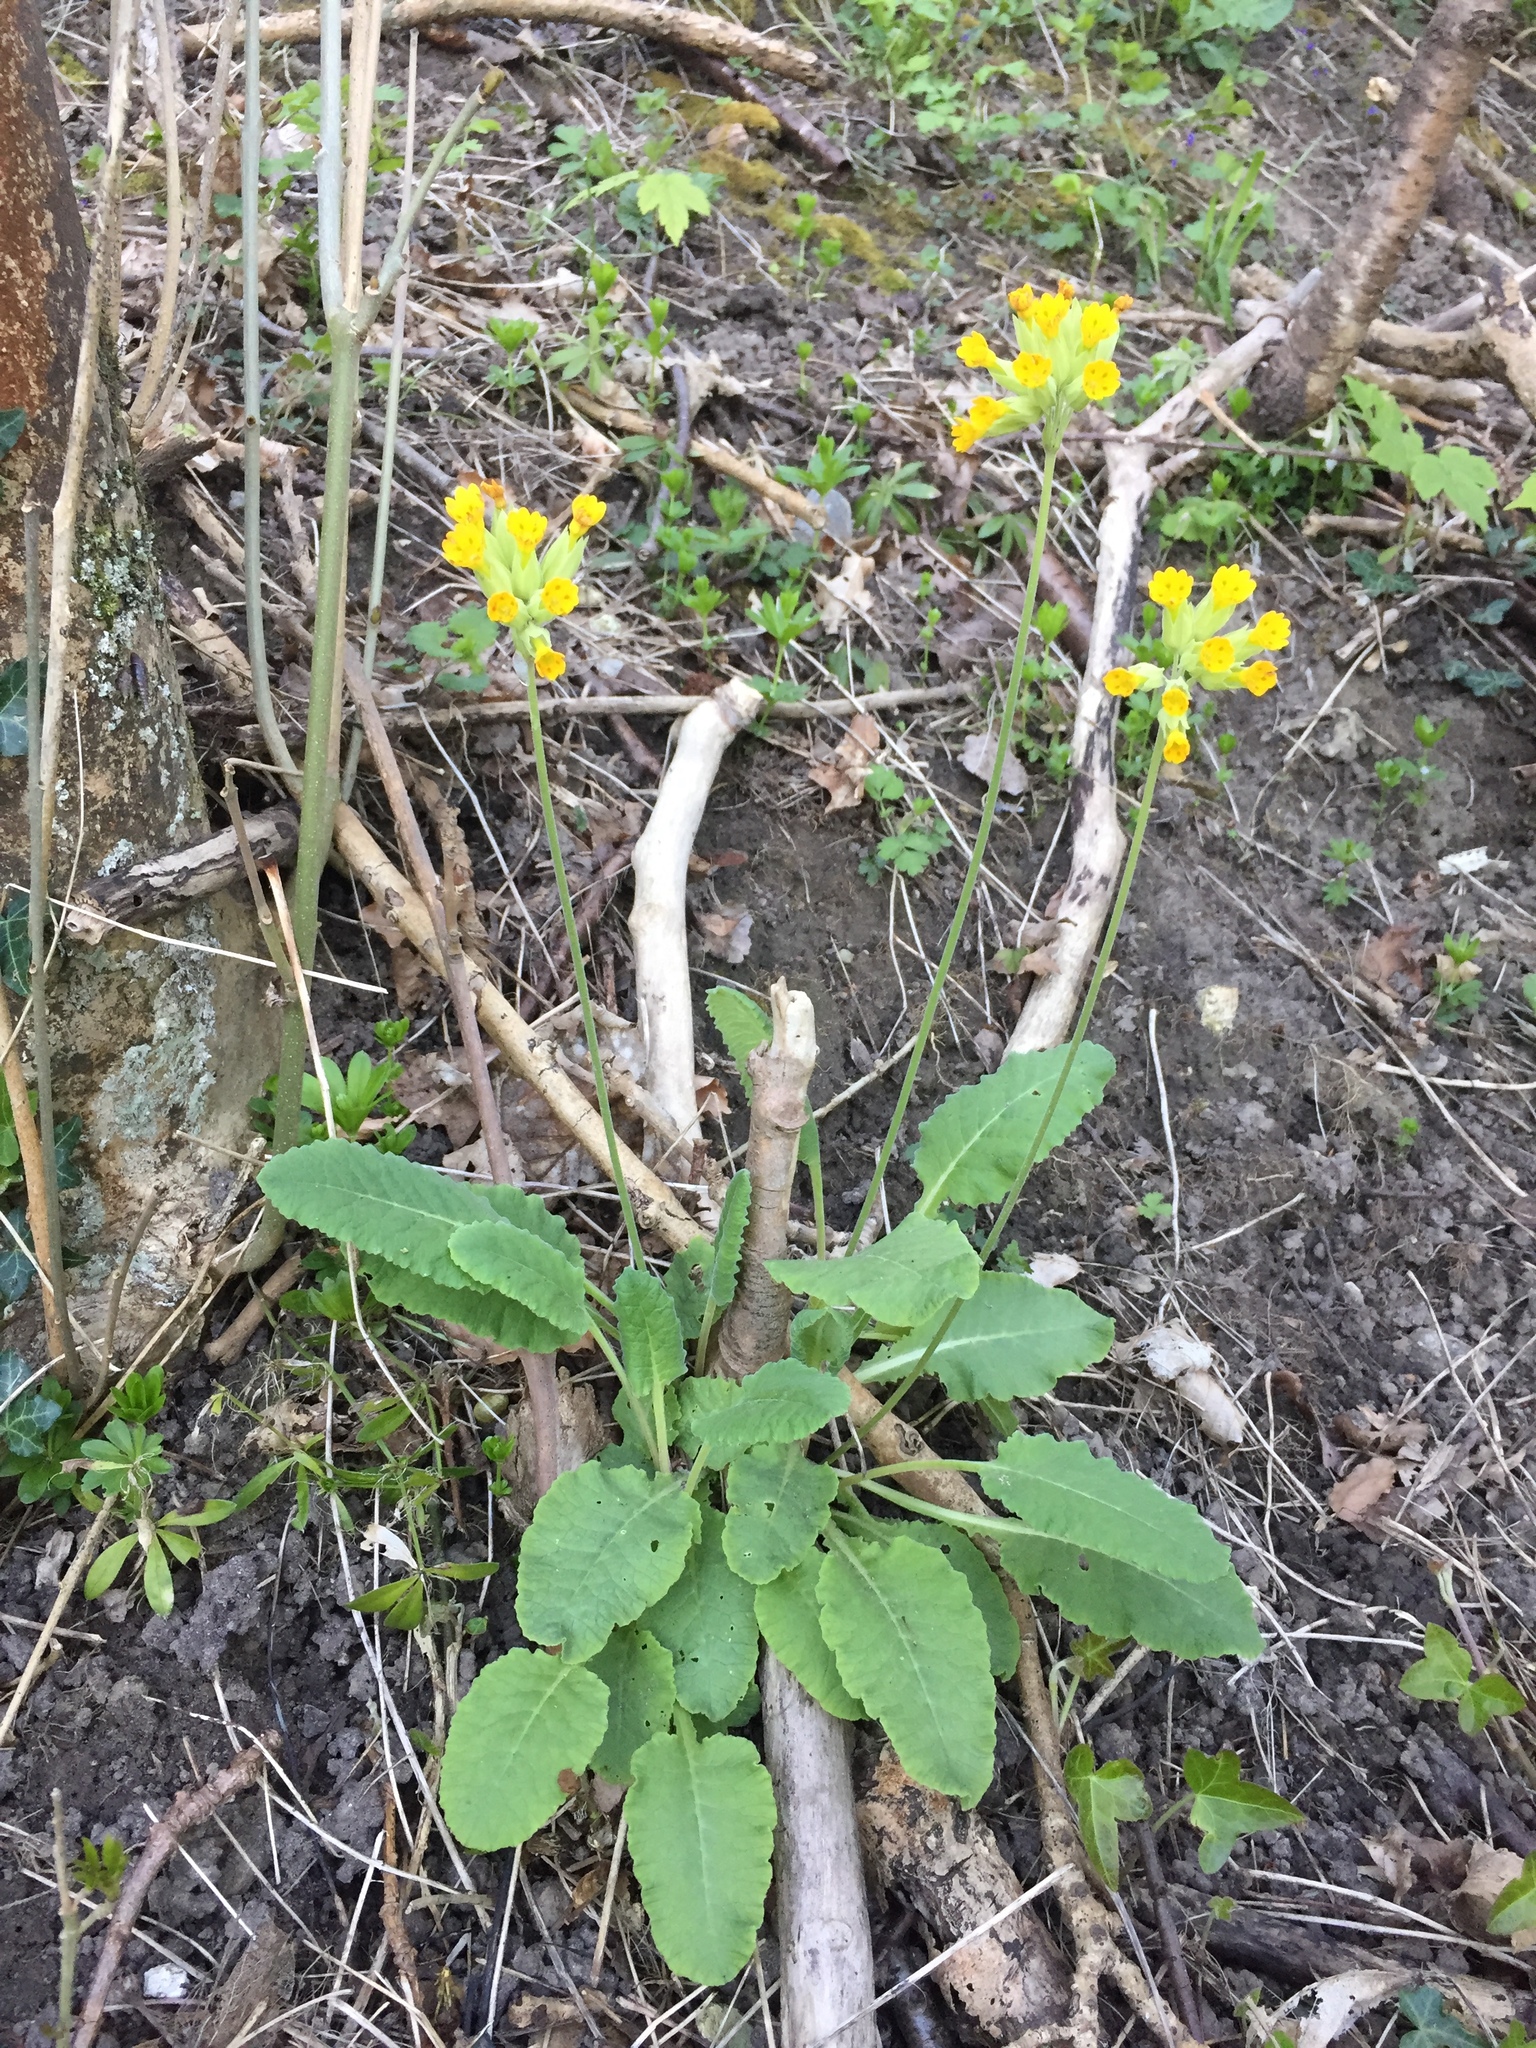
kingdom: Plantae
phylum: Tracheophyta
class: Magnoliopsida
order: Ericales
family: Primulaceae
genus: Primula
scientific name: Primula veris
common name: Cowslip
